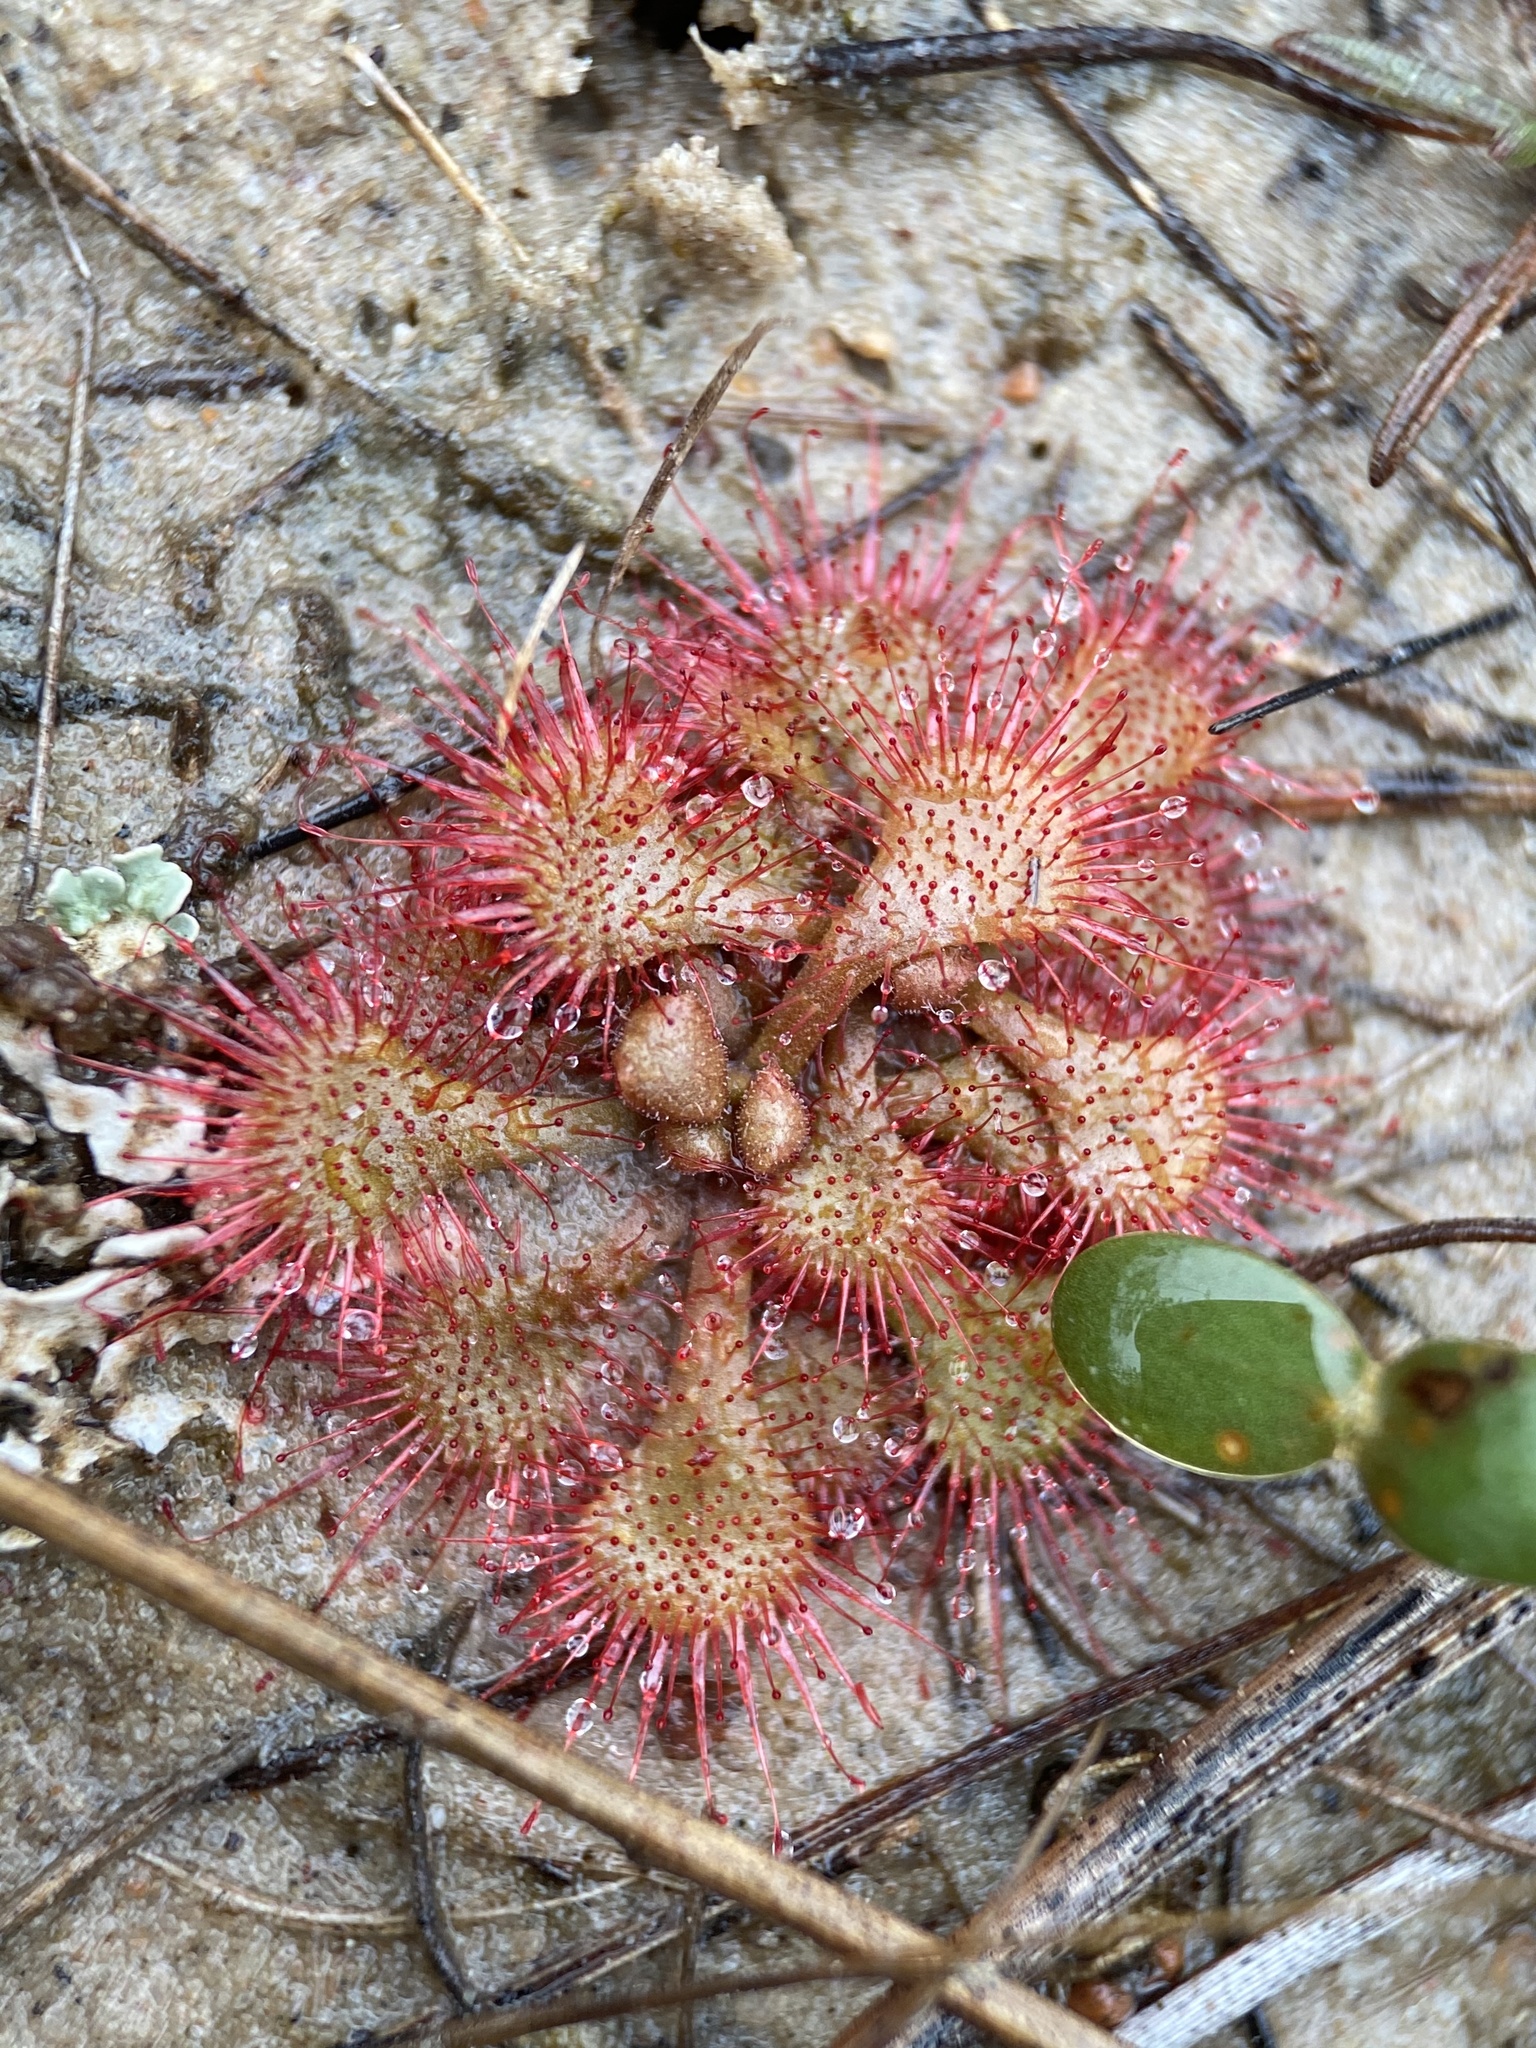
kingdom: Plantae
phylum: Tracheophyta
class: Magnoliopsida
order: Caryophyllales
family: Droseraceae
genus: Drosera
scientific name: Drosera brevifolia
